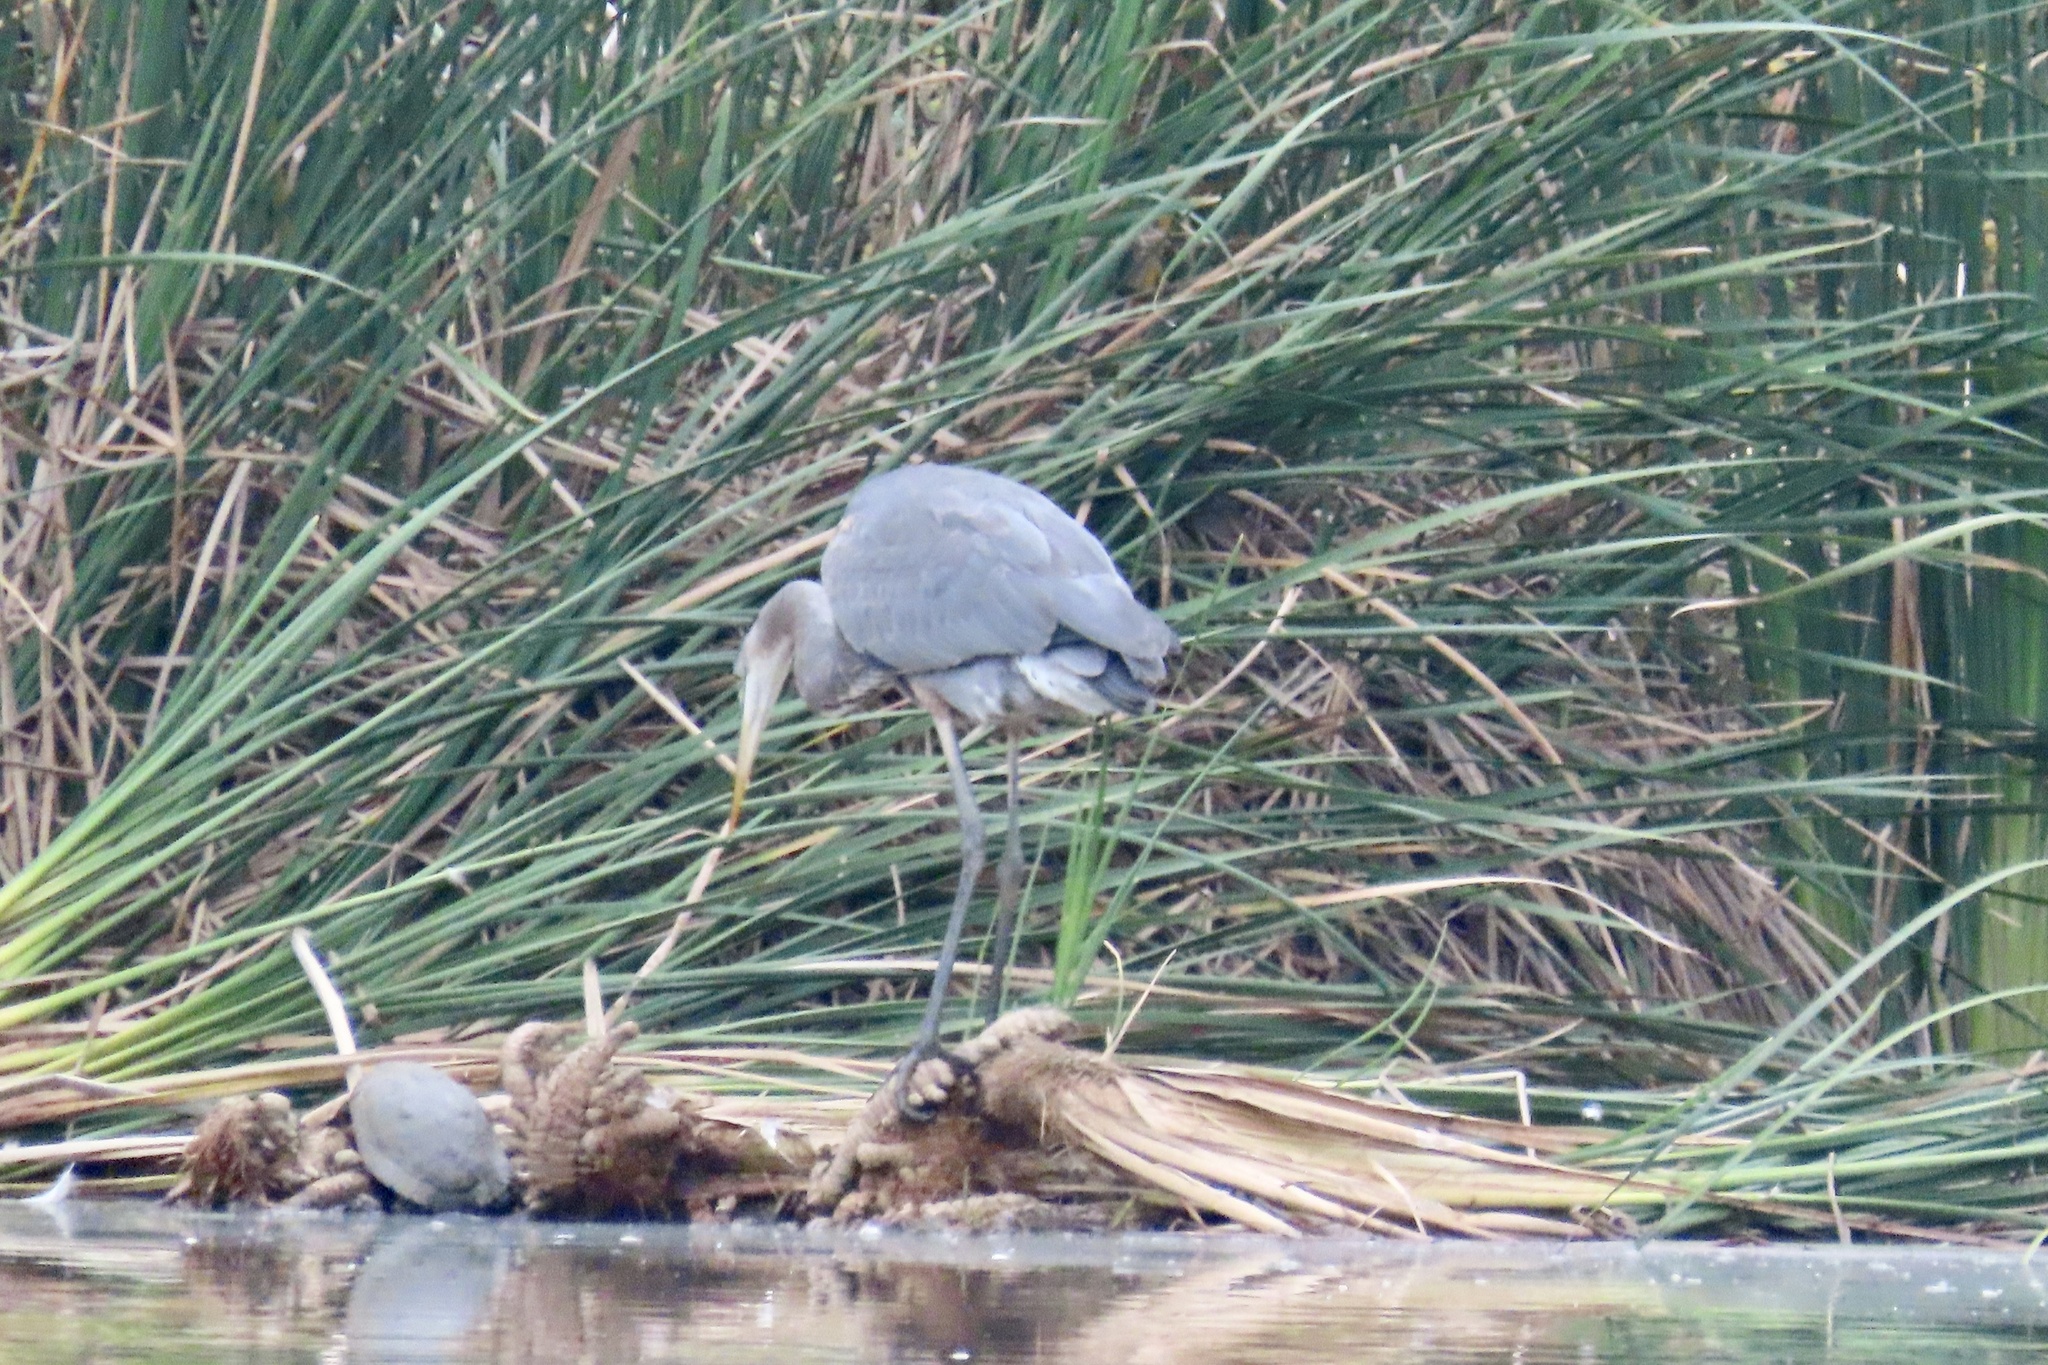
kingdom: Animalia
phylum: Chordata
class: Aves
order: Pelecaniformes
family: Ardeidae
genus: Ardea
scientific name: Ardea herodias
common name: Great blue heron
